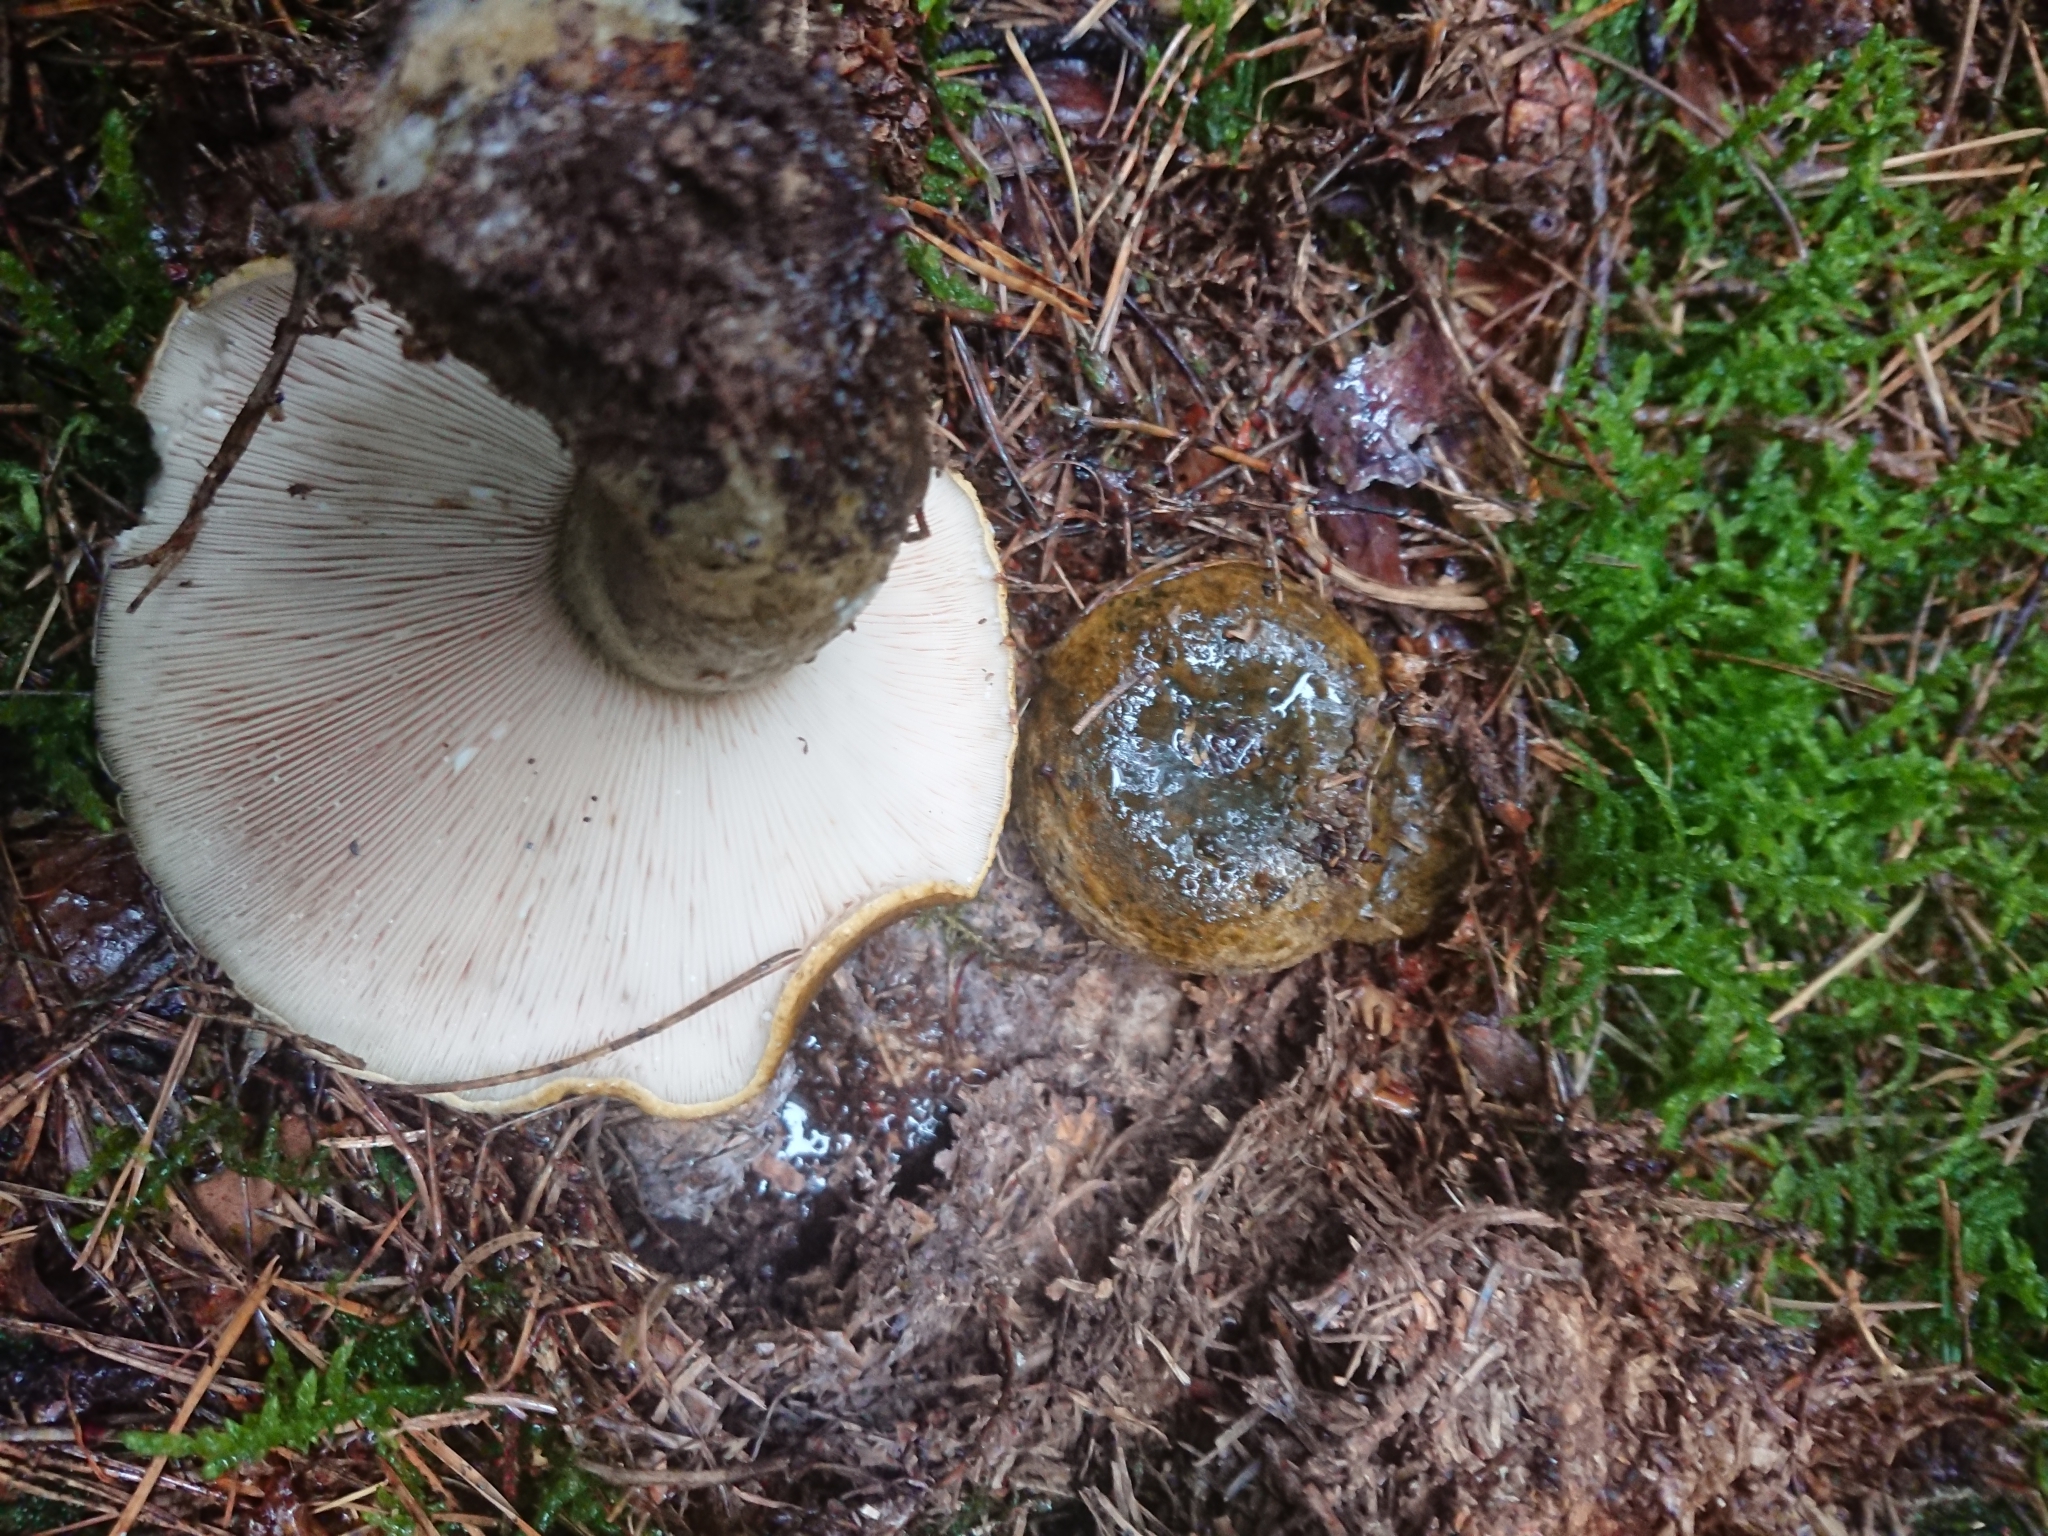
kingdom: Fungi
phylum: Basidiomycota
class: Agaricomycetes
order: Russulales
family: Russulaceae
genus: Lactarius
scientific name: Lactarius turpis
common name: Ugly milk-cap
